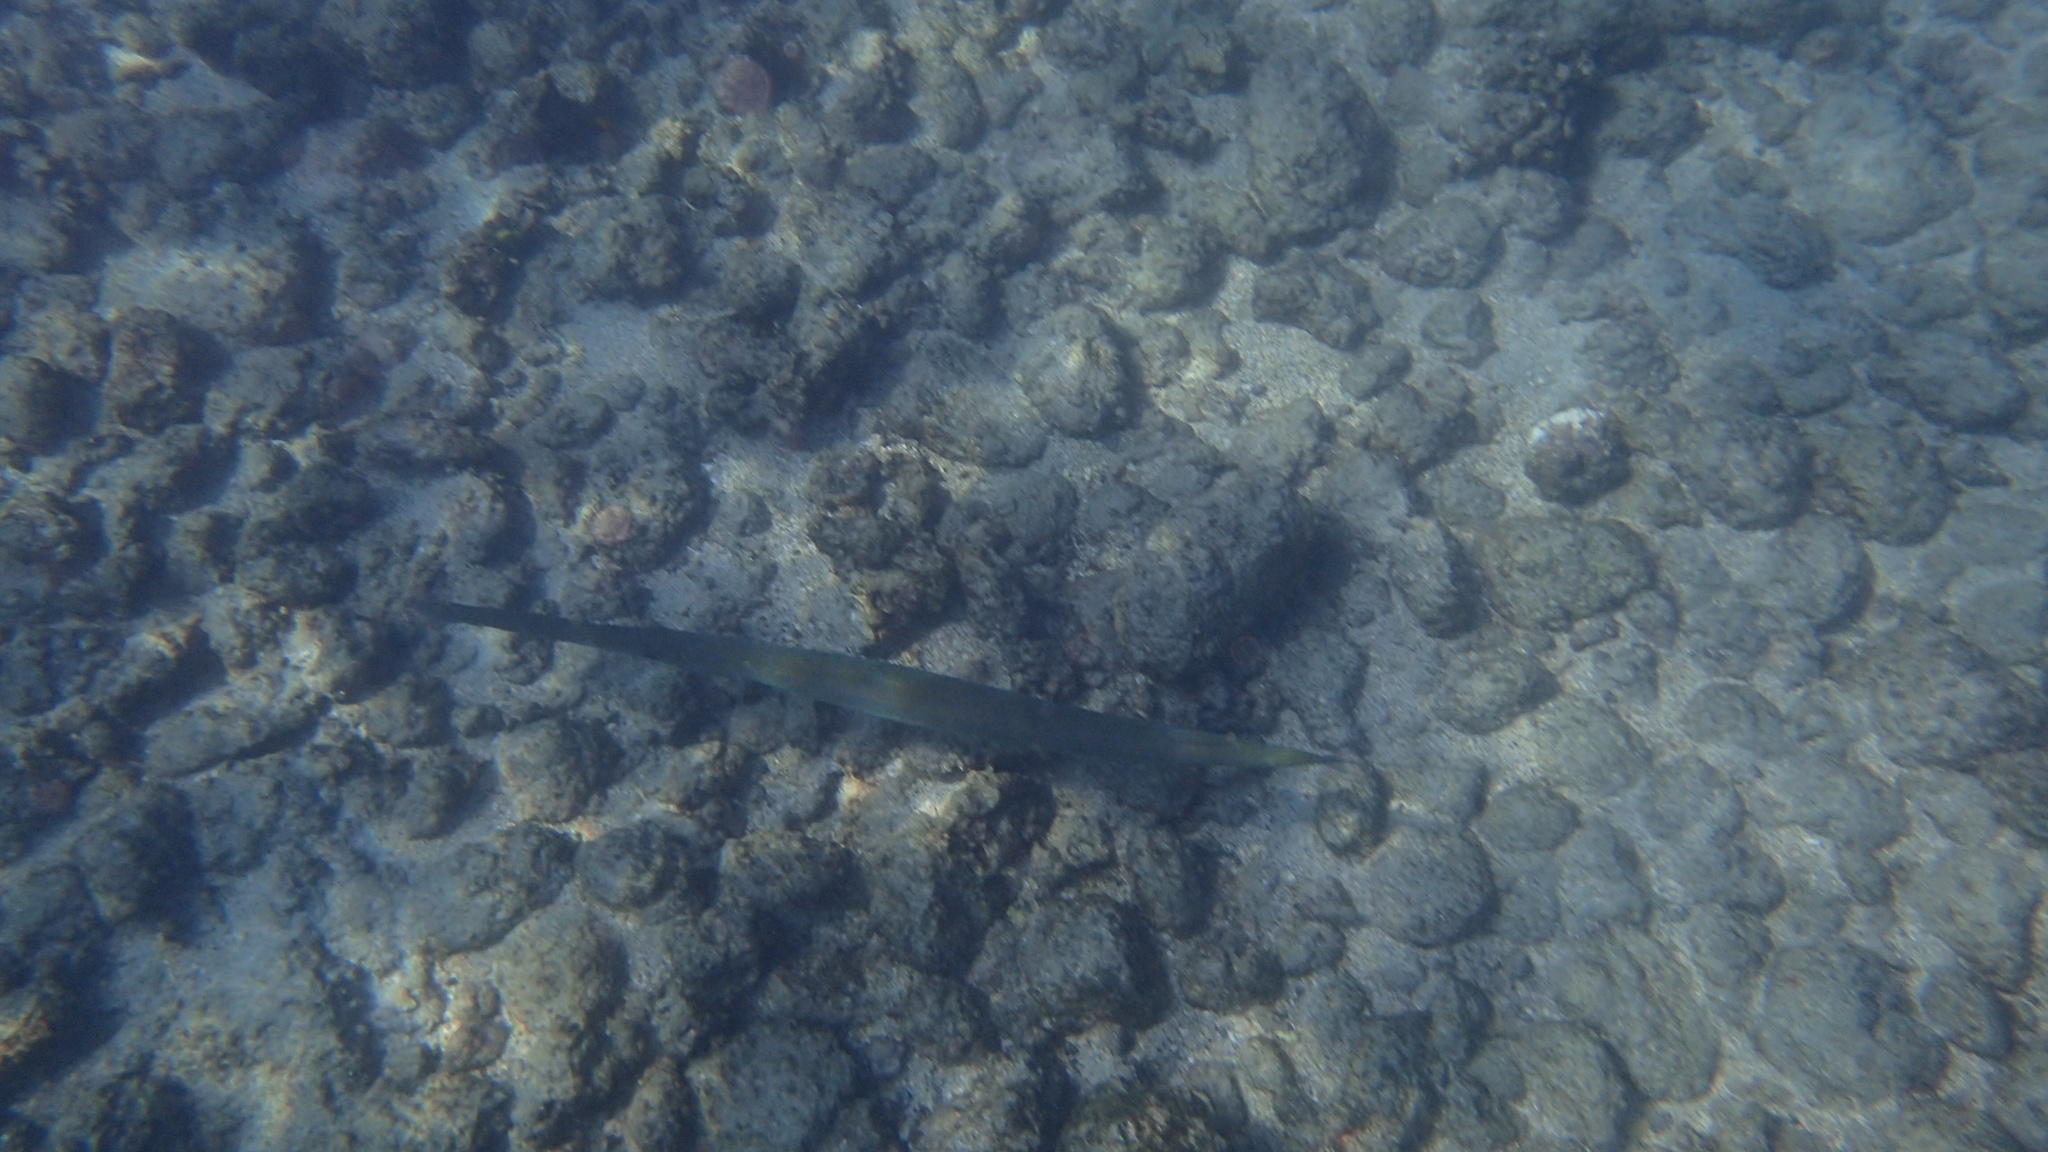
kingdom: Animalia
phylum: Chordata
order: Syngnathiformes
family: Fistulariidae
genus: Fistularia
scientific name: Fistularia commersonii
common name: Bluespotted cornetfish
